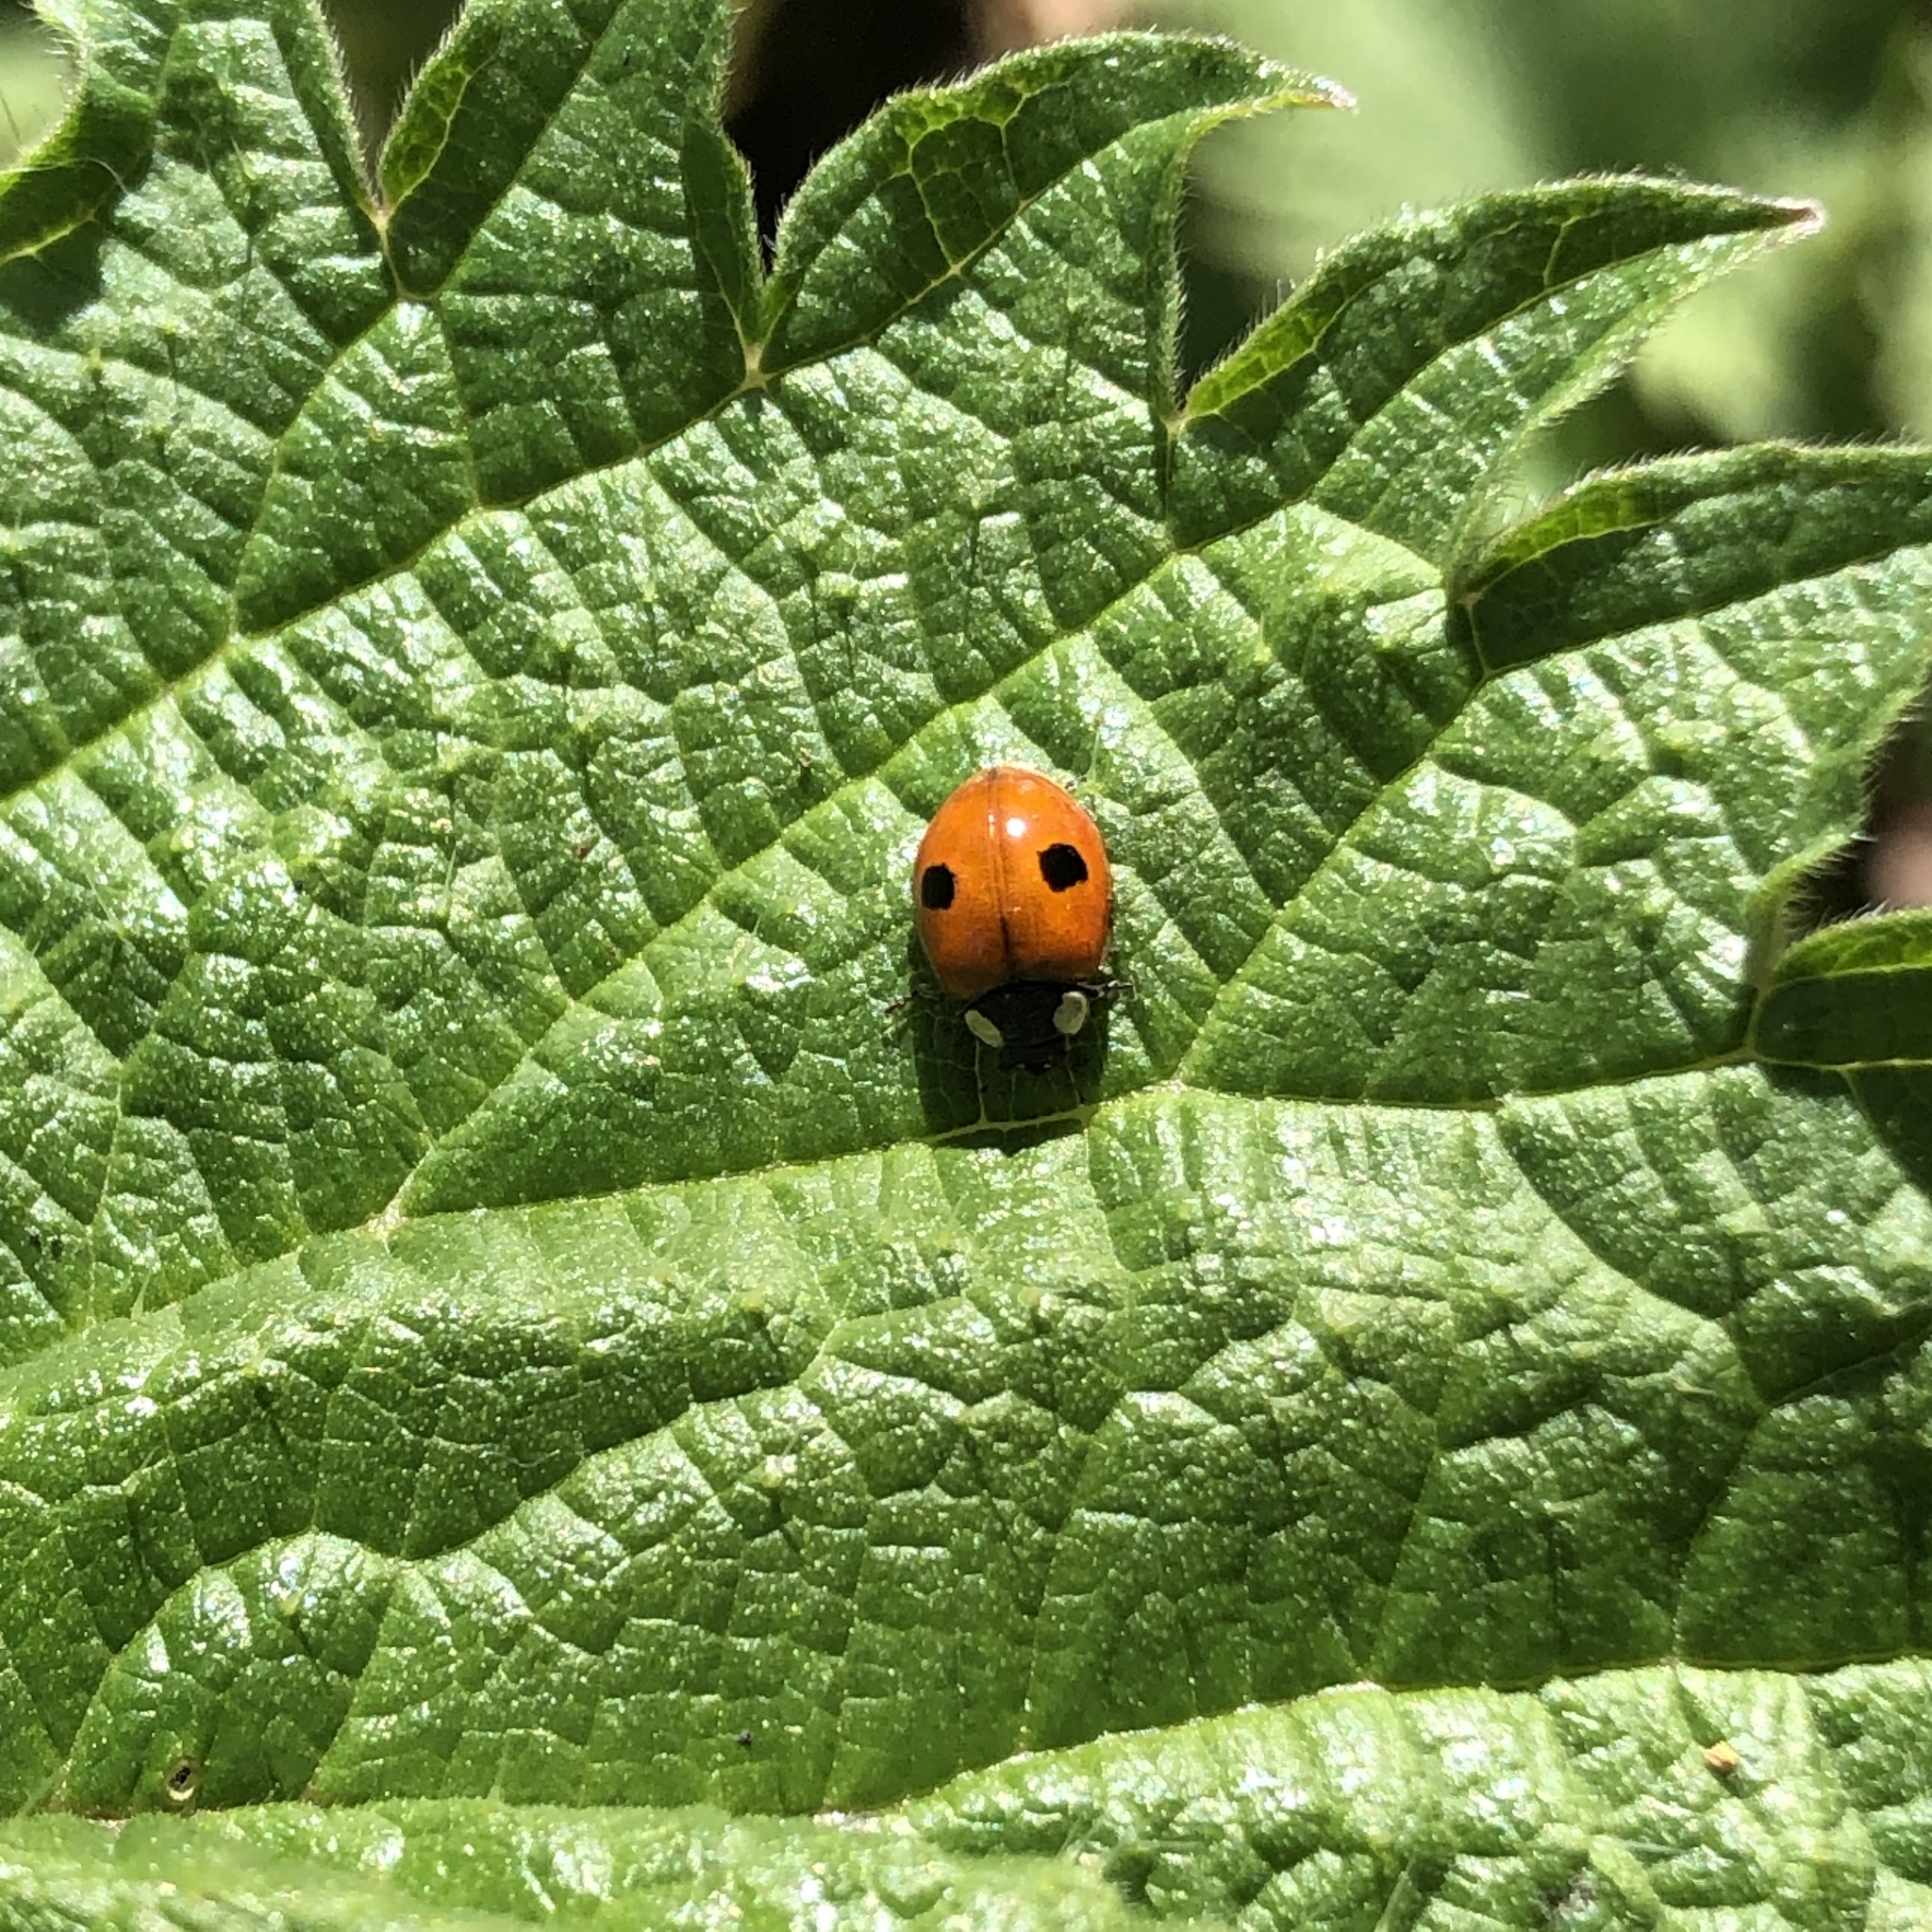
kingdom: Animalia
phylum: Arthropoda
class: Insecta
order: Coleoptera
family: Coccinellidae
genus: Adalia
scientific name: Adalia bipunctata
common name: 2-spot ladybird
